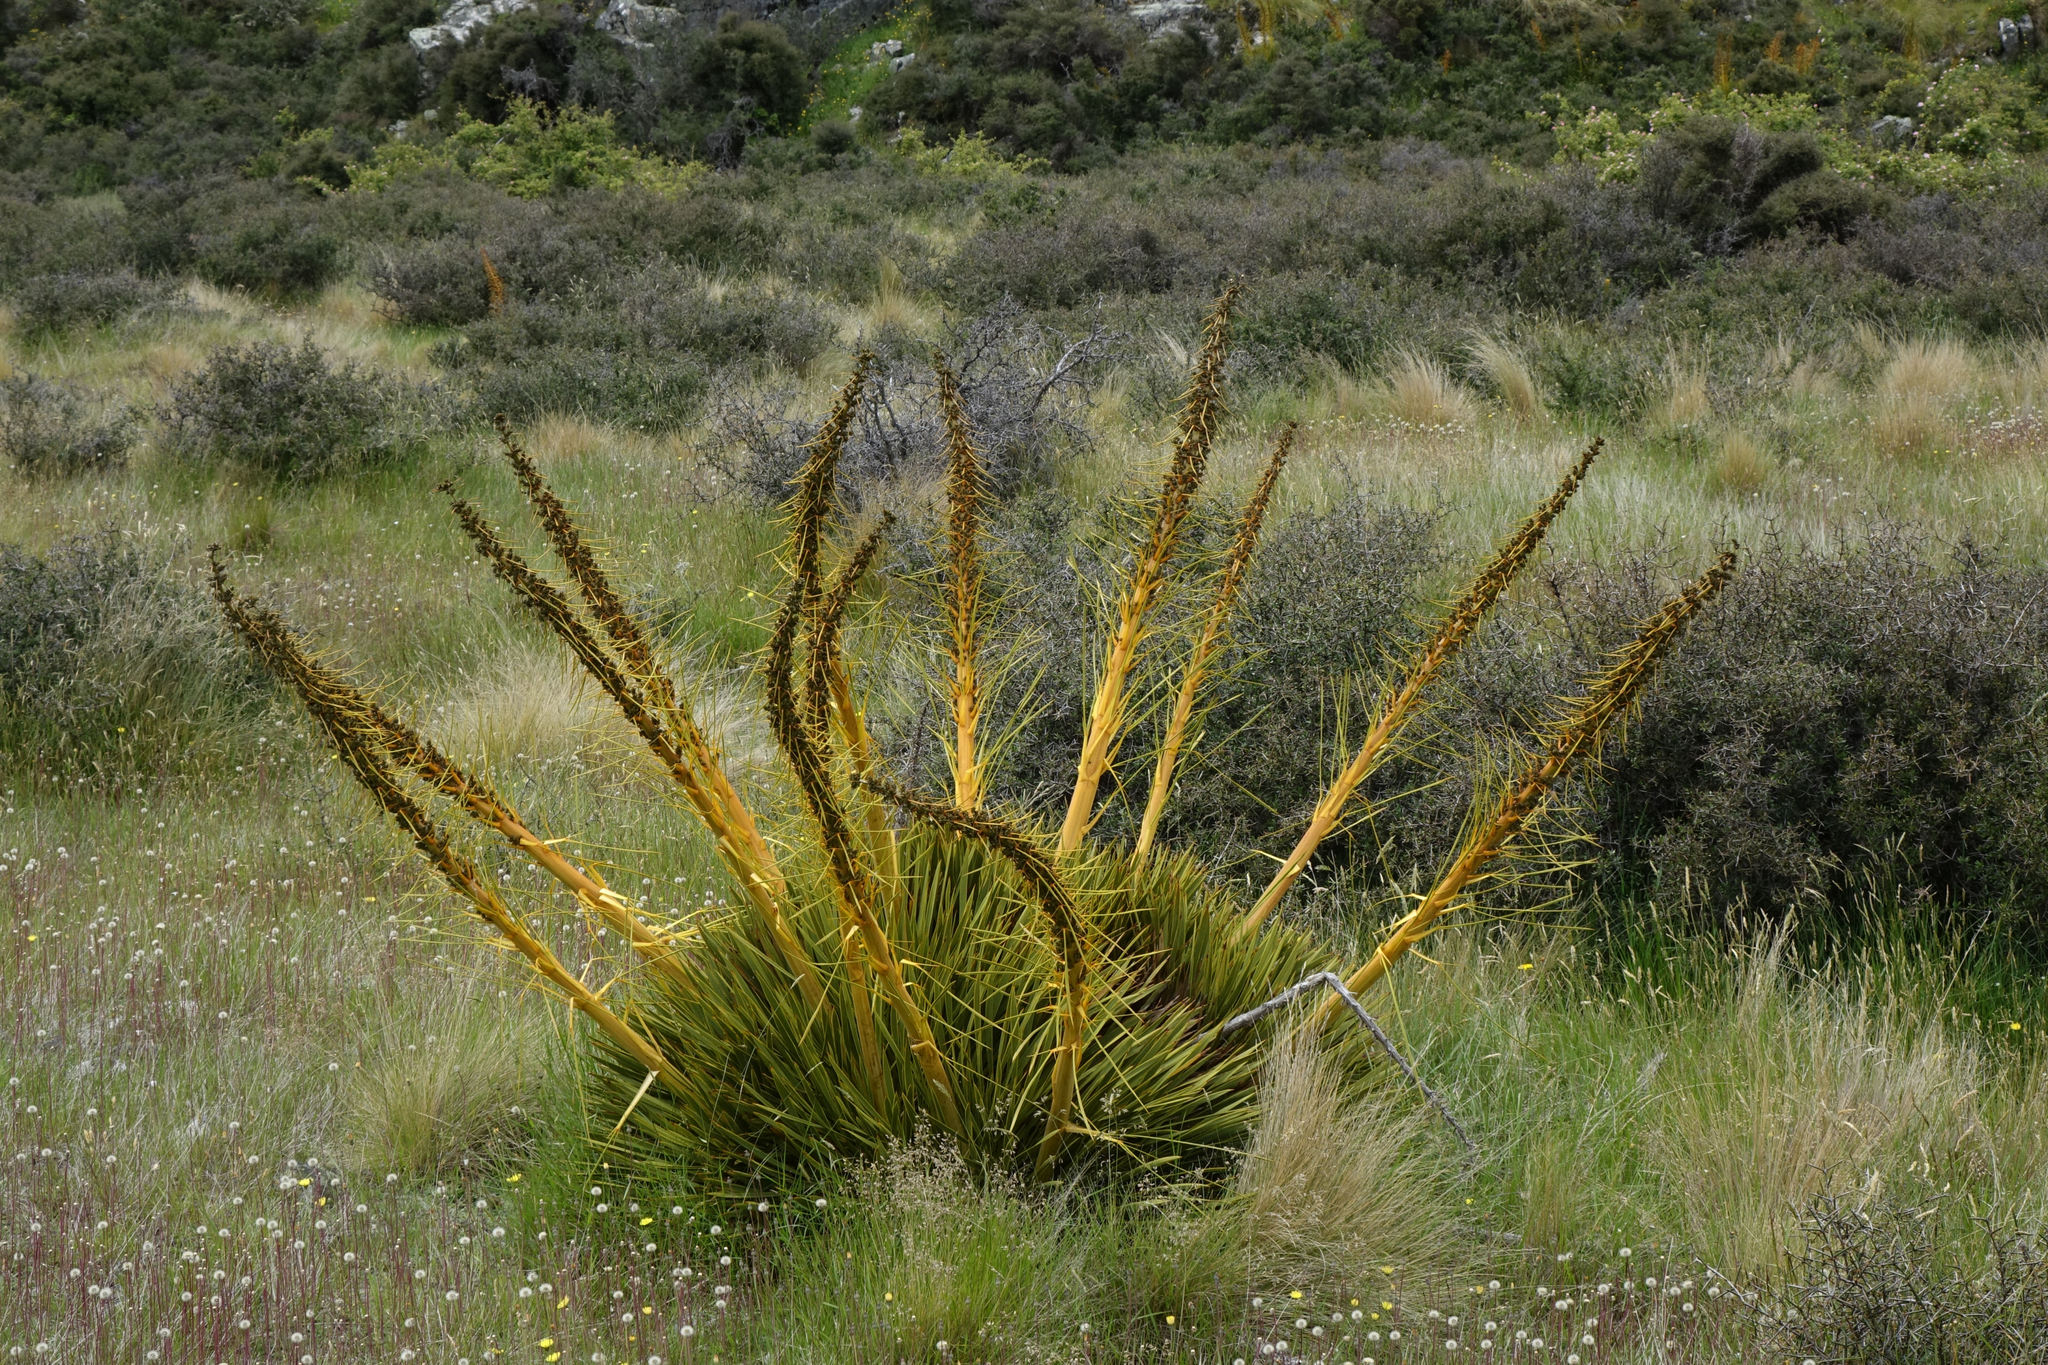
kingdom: Plantae
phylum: Tracheophyta
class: Magnoliopsida
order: Apiales
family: Apiaceae
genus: Aciphylla
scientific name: Aciphylla aurea
